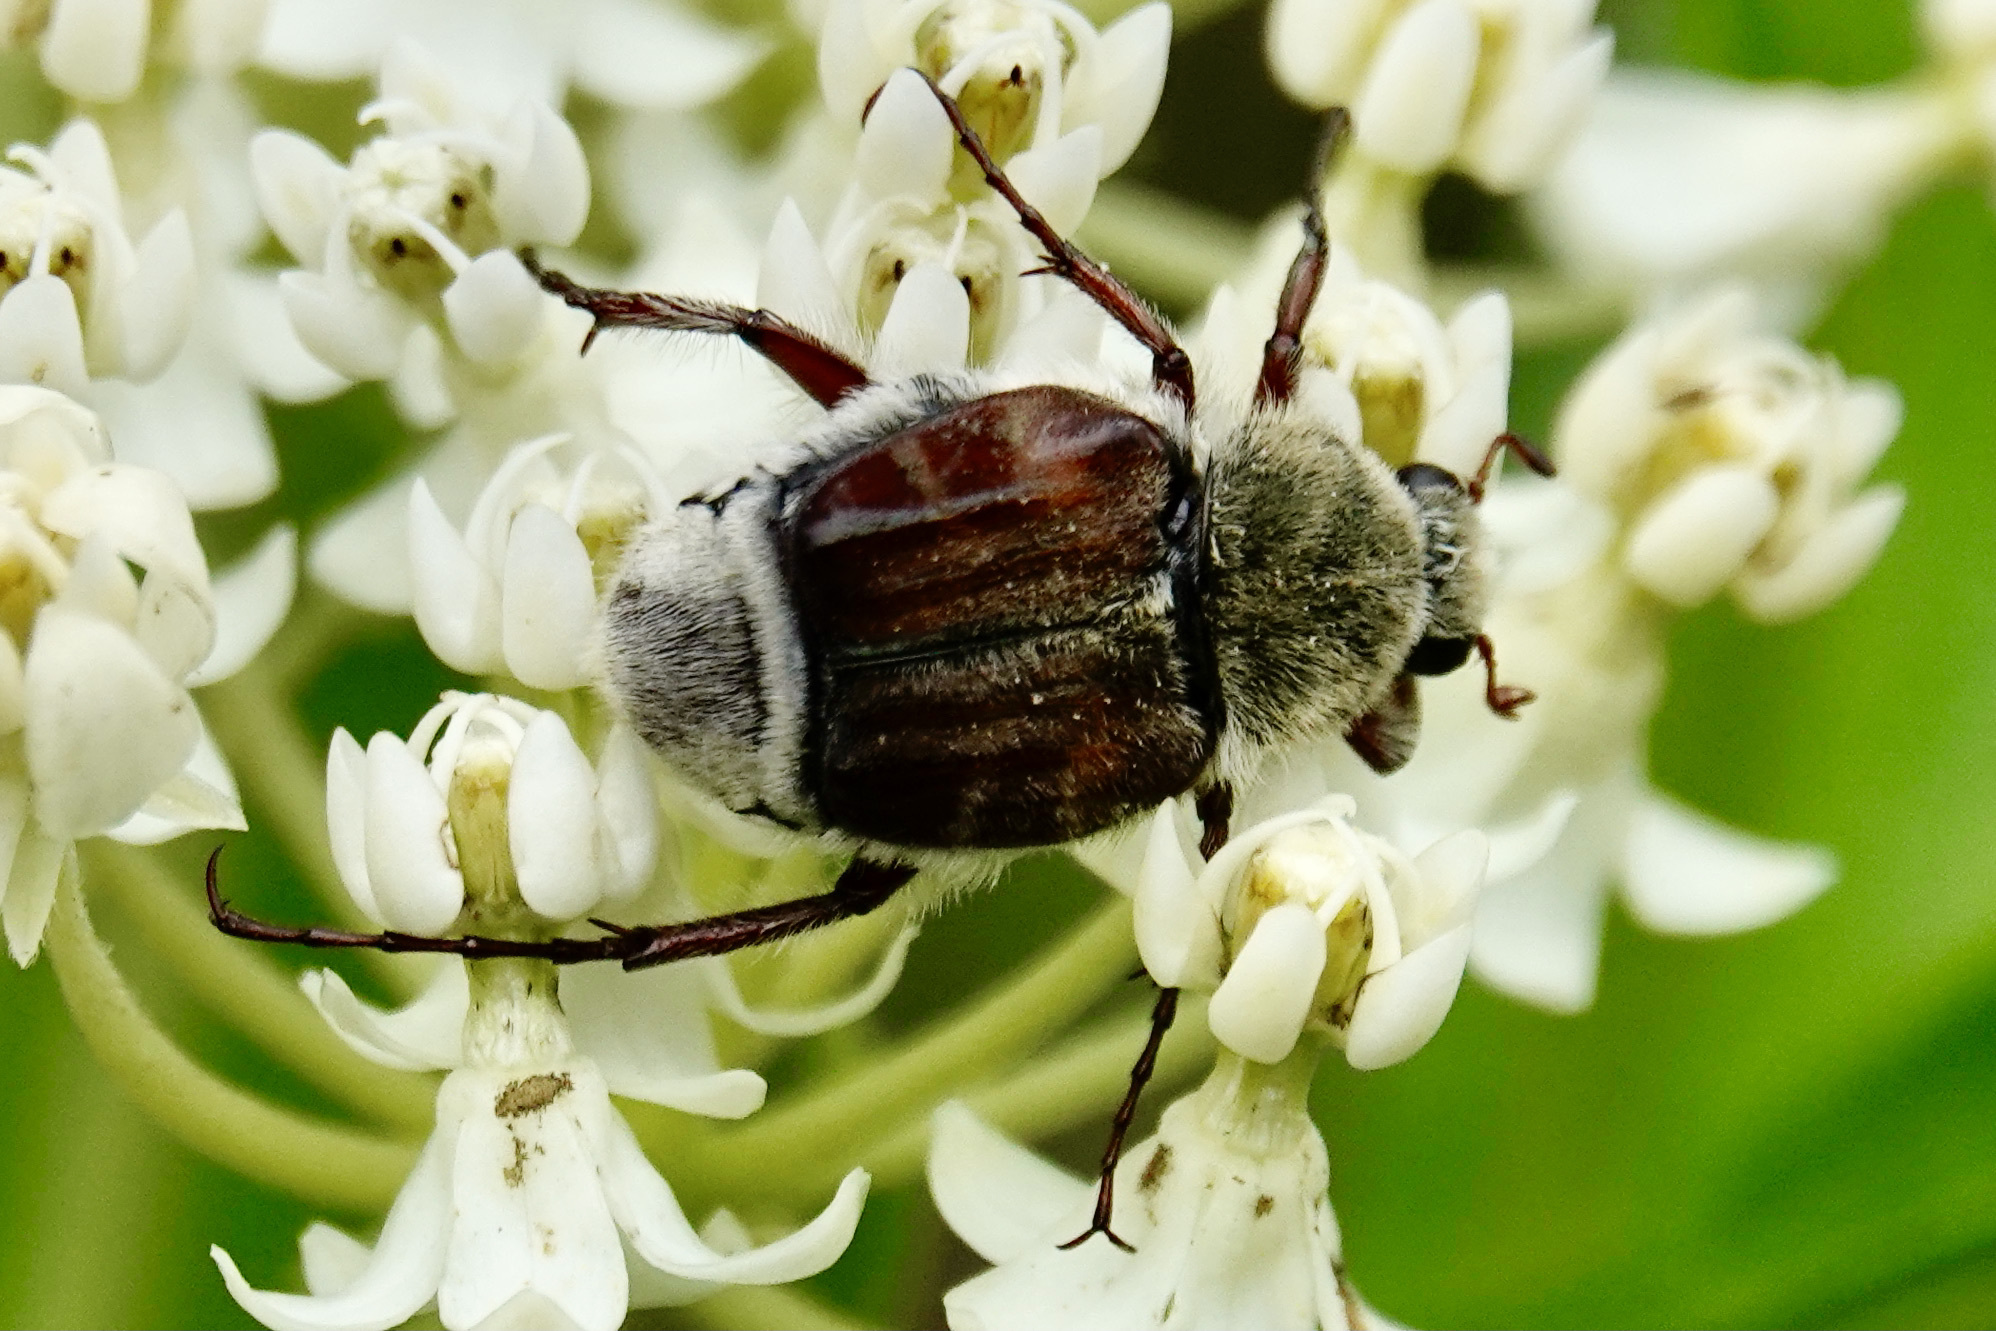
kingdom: Animalia
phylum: Arthropoda
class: Insecta
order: Coleoptera
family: Scarabaeidae
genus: Trichiotinus
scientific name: Trichiotinus piger
